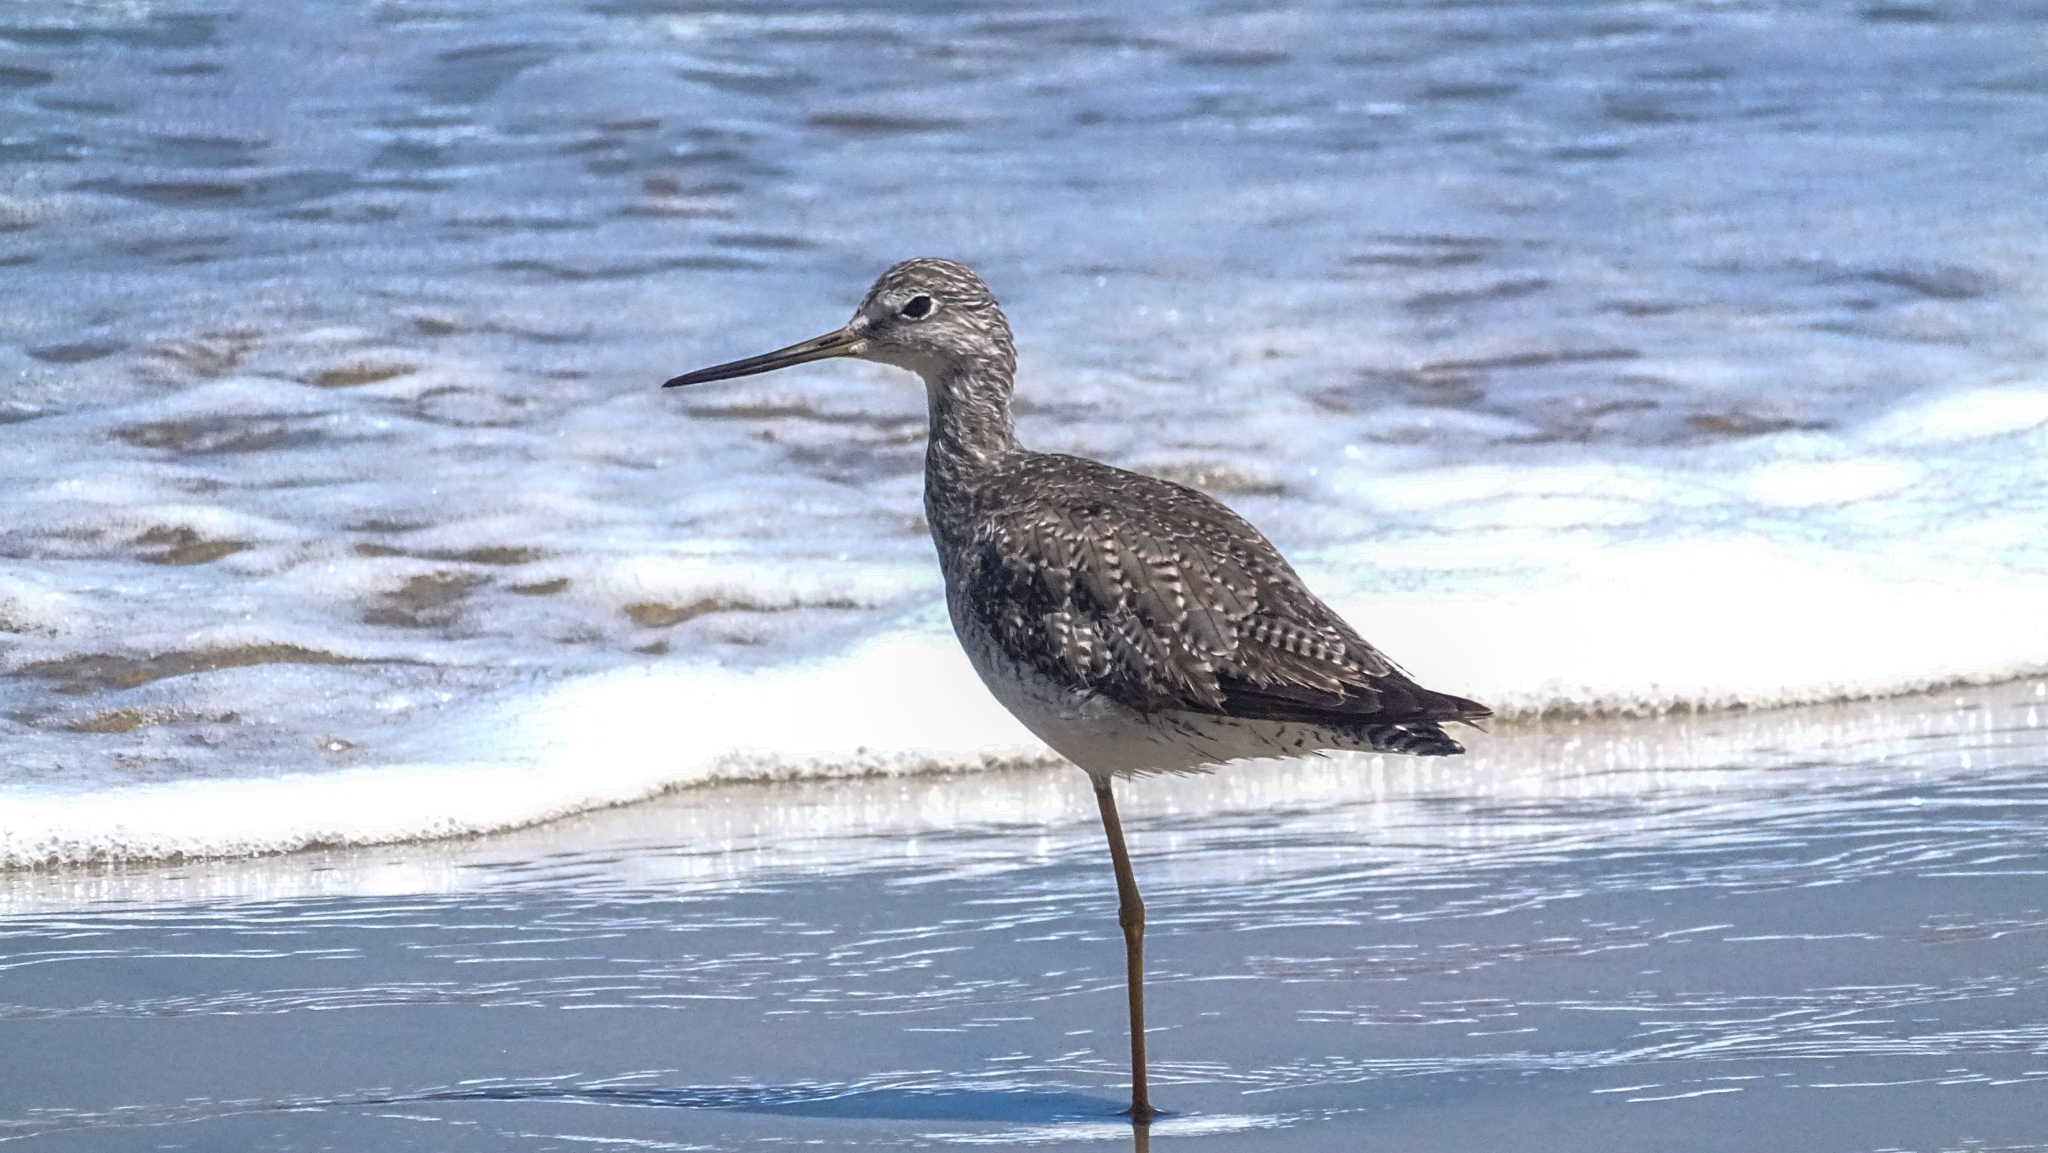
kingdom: Animalia
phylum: Chordata
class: Aves
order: Charadriiformes
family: Scolopacidae
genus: Tringa
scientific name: Tringa melanoleuca
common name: Greater yellowlegs
